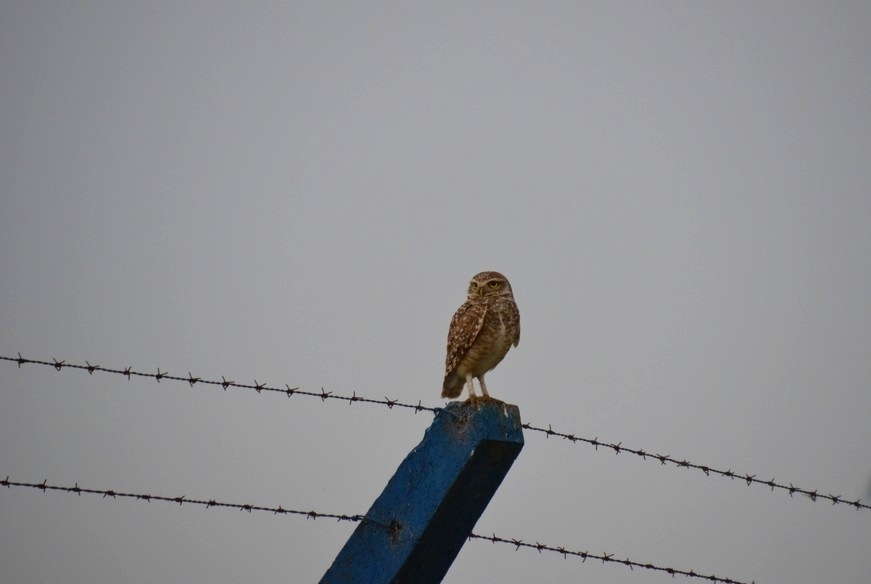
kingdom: Animalia
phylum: Chordata
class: Aves
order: Strigiformes
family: Strigidae
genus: Athene
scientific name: Athene cunicularia
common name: Burrowing owl
